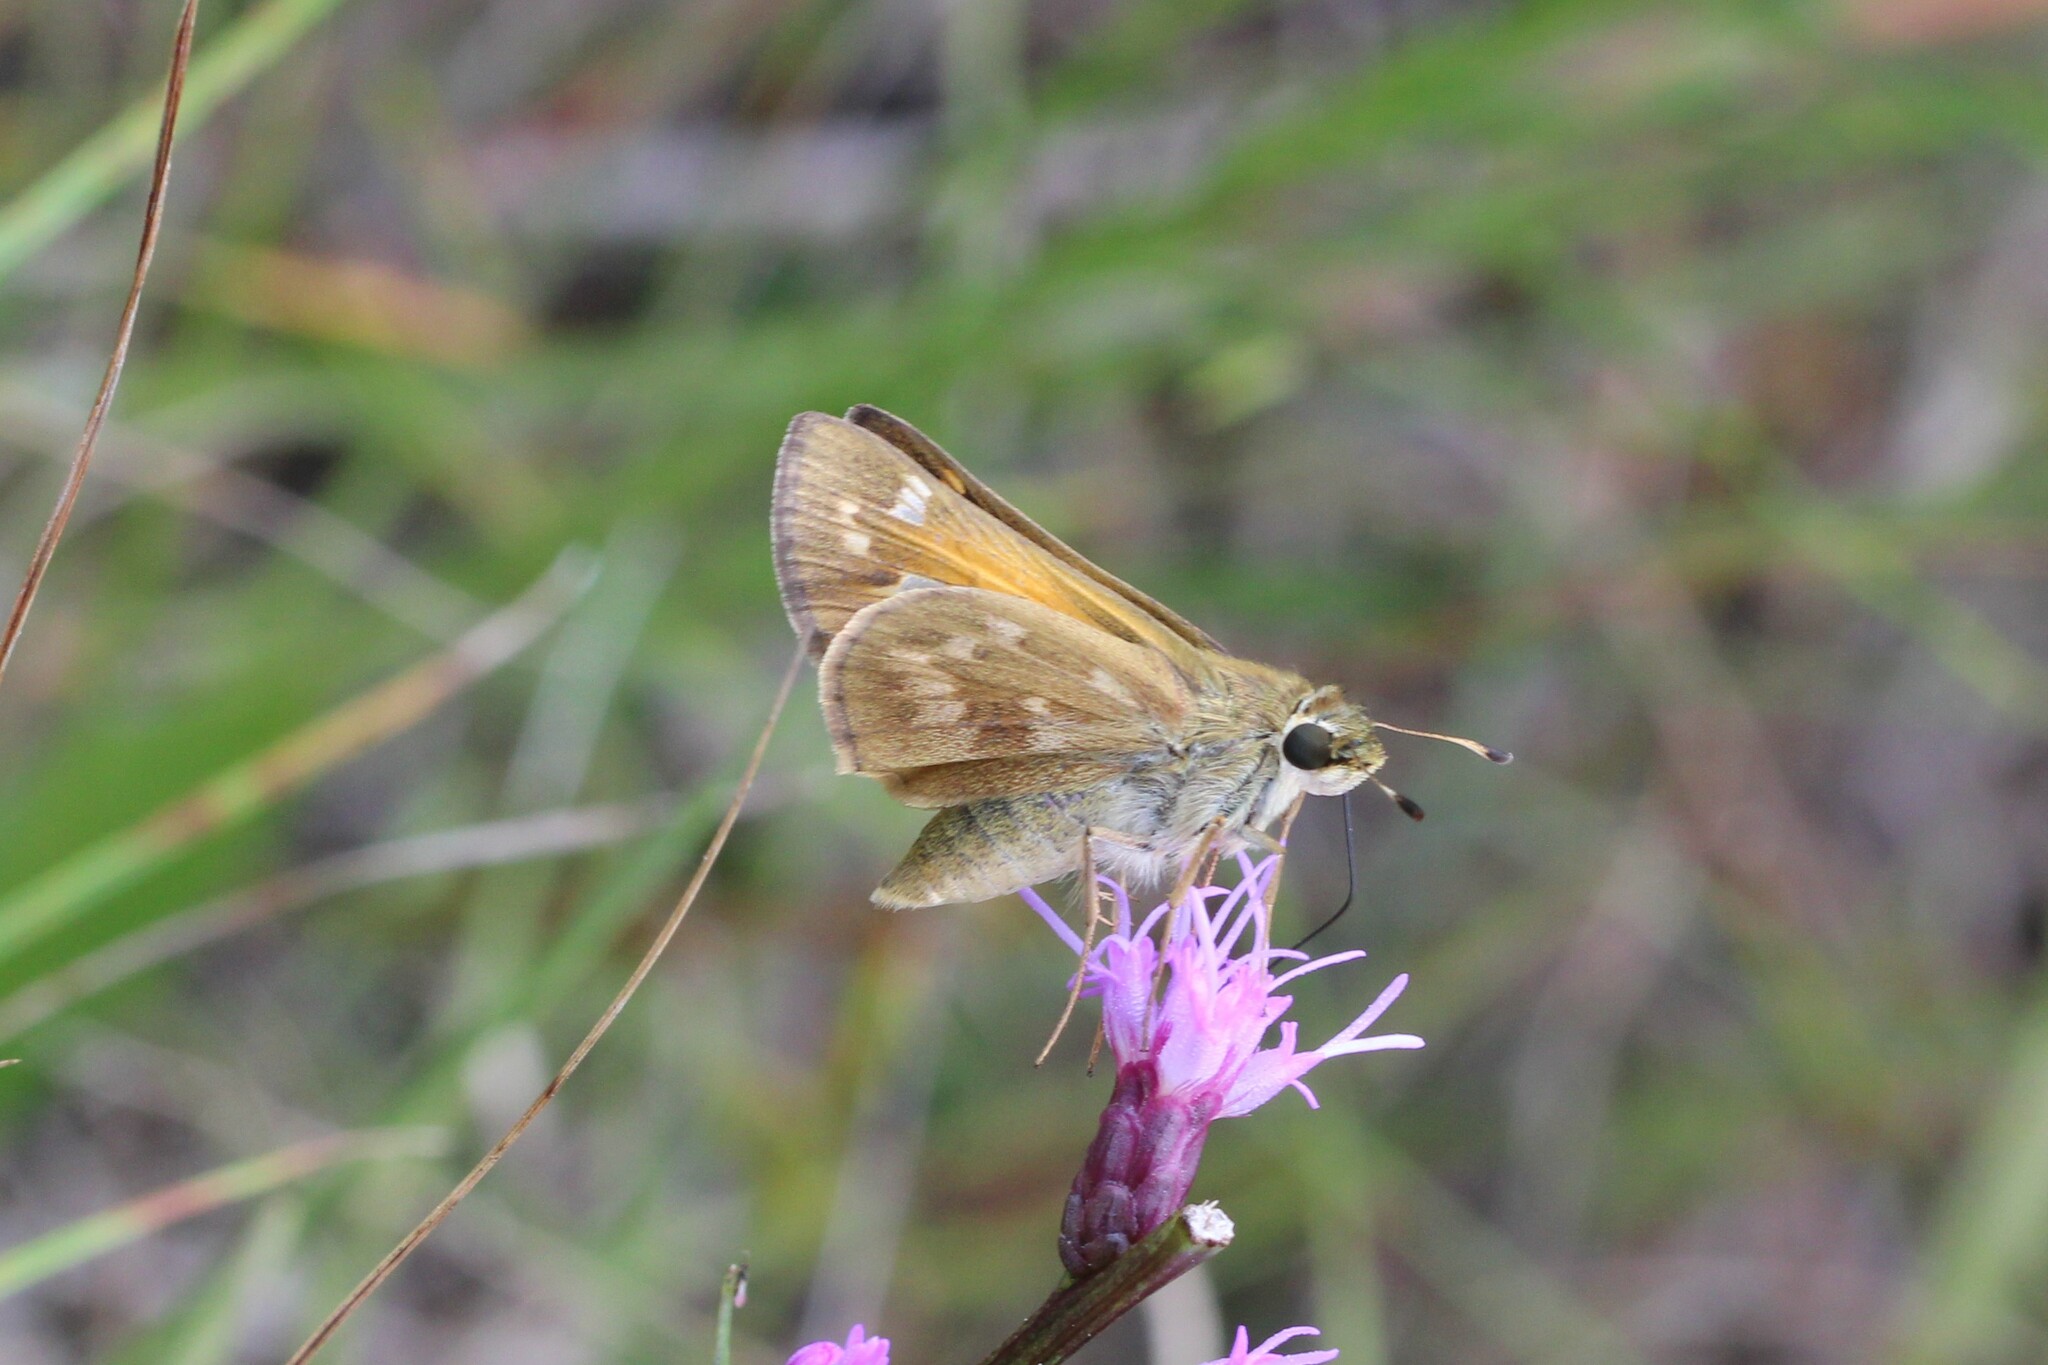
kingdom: Animalia
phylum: Arthropoda
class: Insecta
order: Lepidoptera
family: Hesperiidae
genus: Atalopedes
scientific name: Atalopedes
